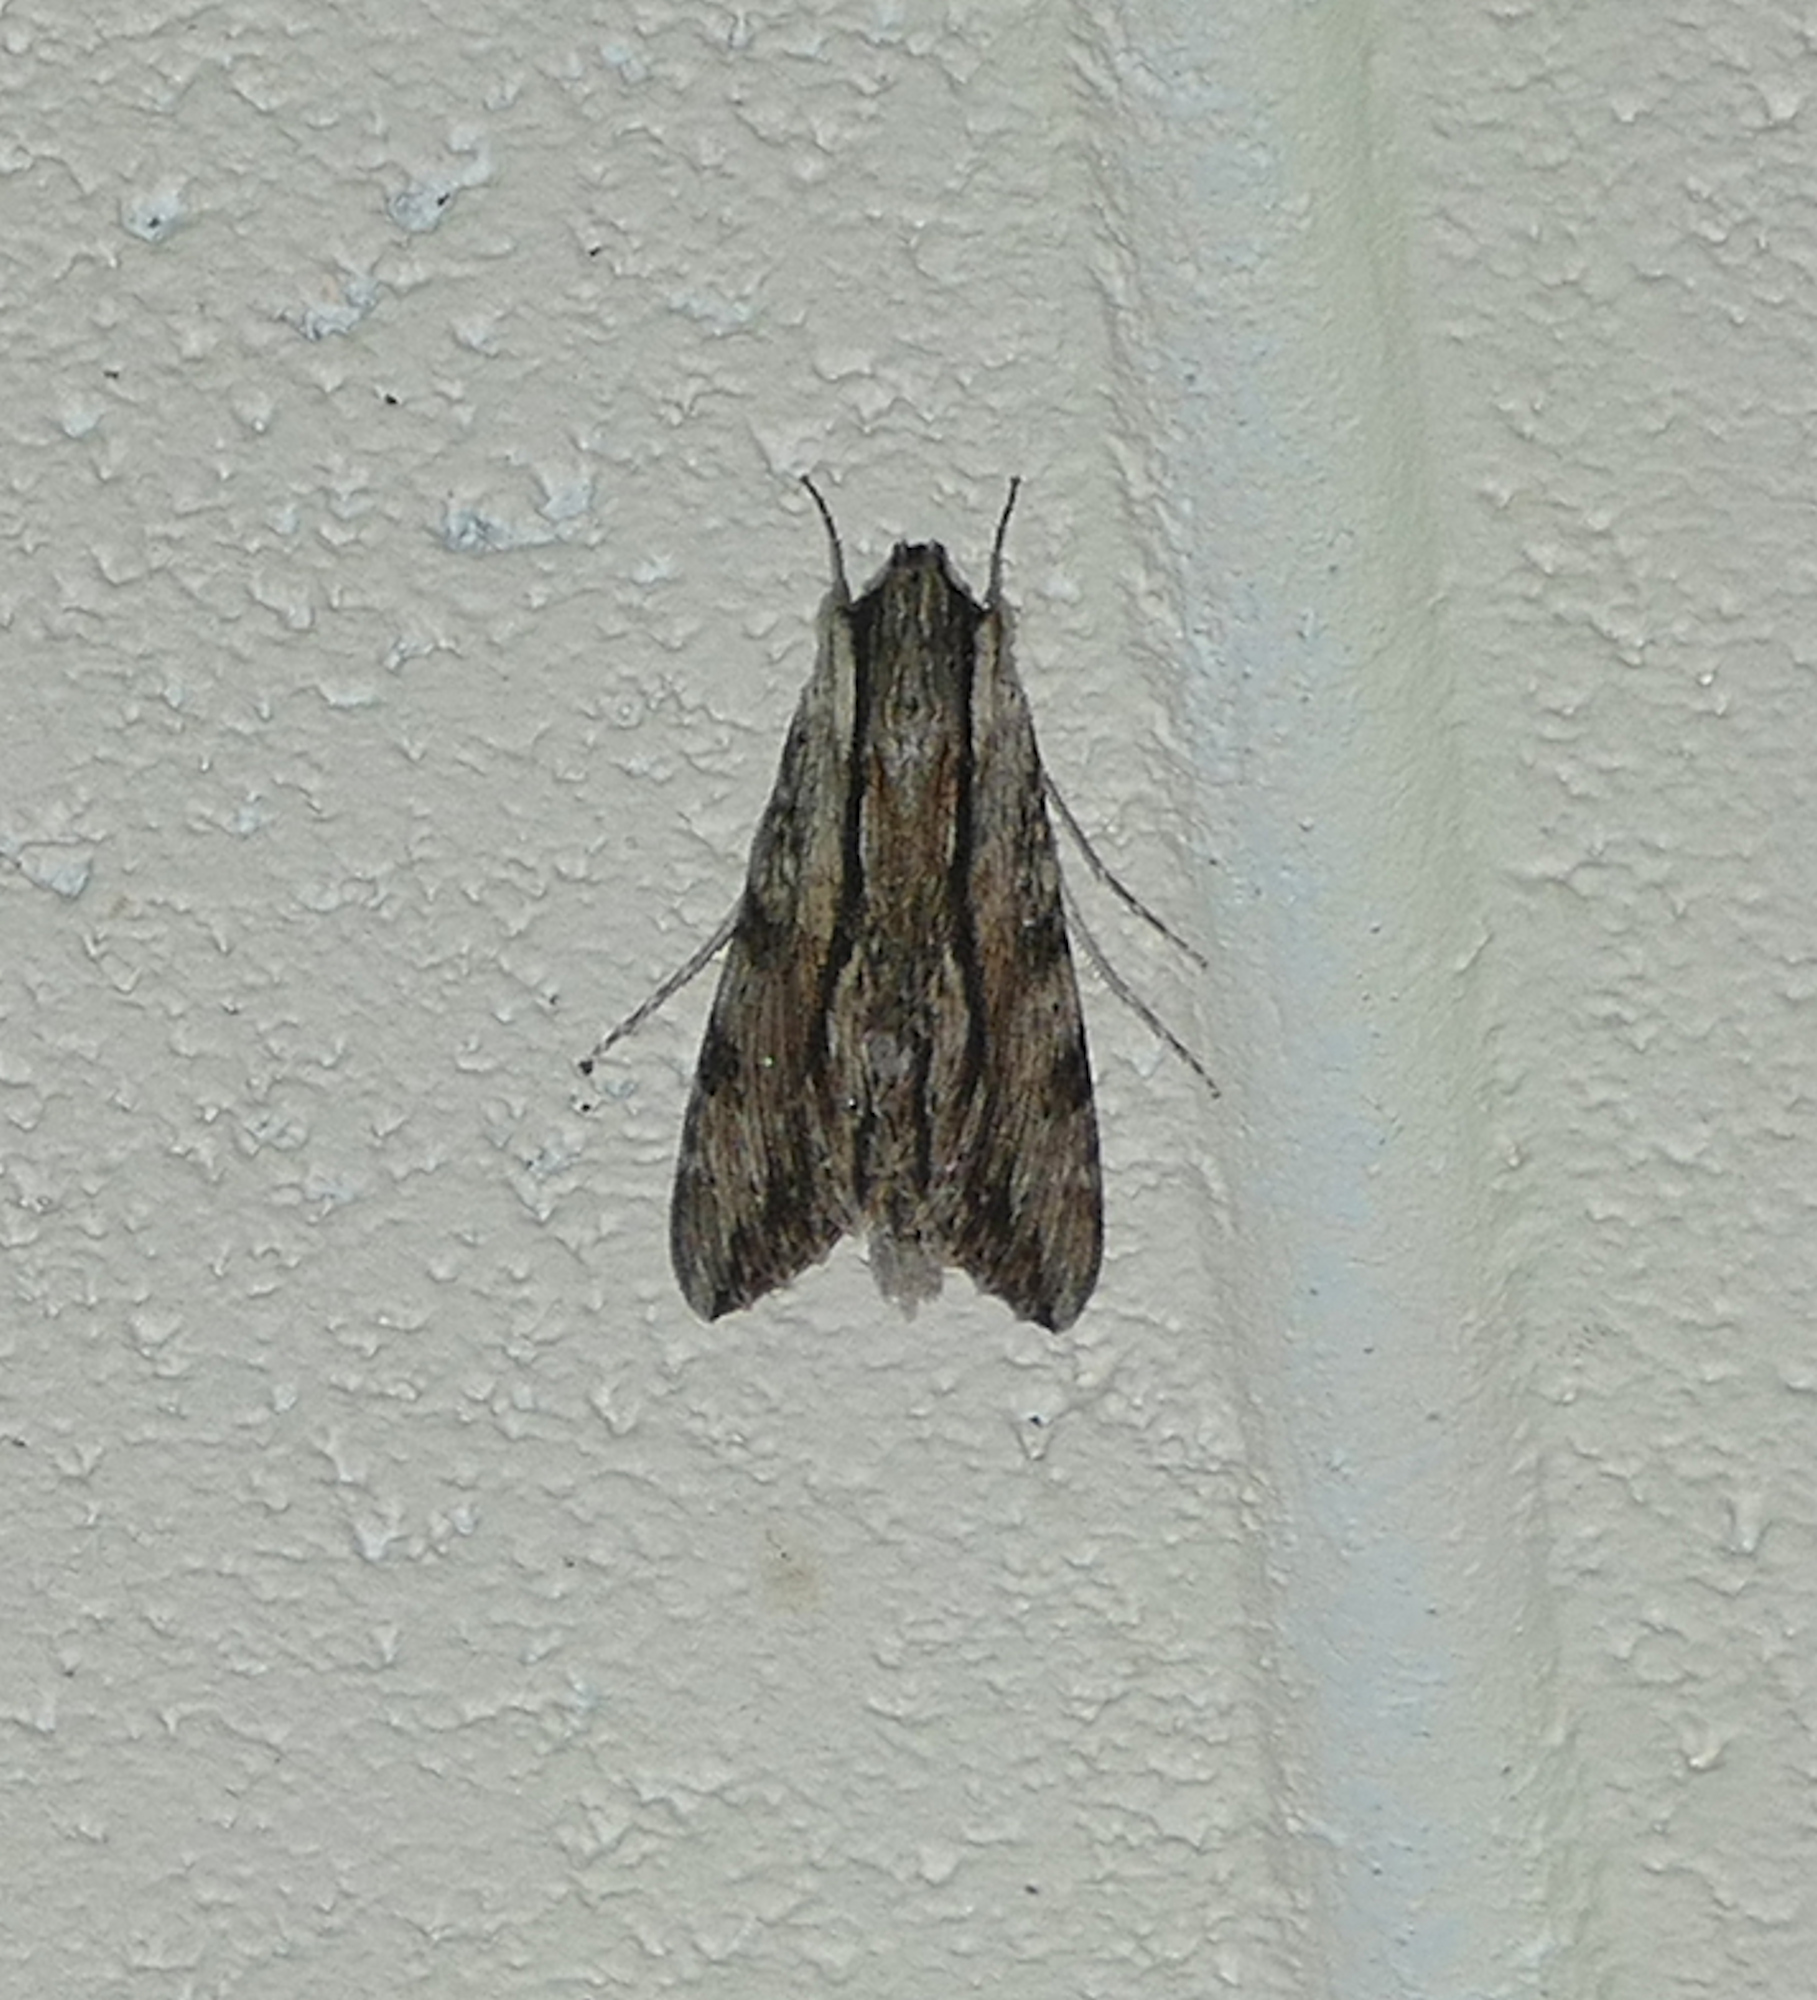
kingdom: Animalia
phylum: Arthropoda
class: Insecta
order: Lepidoptera
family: Sphingidae
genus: Erinnyis
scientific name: Erinnyis obscura
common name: Obscure sphinx
